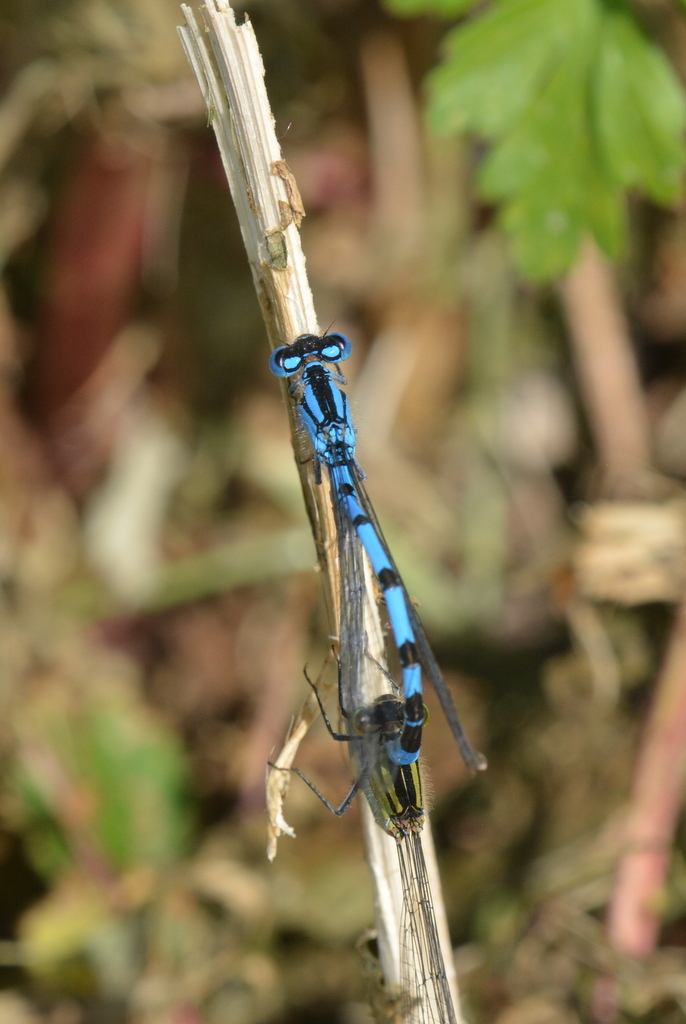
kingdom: Animalia
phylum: Arthropoda
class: Insecta
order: Odonata
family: Coenagrionidae
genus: Enallagma
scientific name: Enallagma cyathigerum
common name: Common blue damselfly
